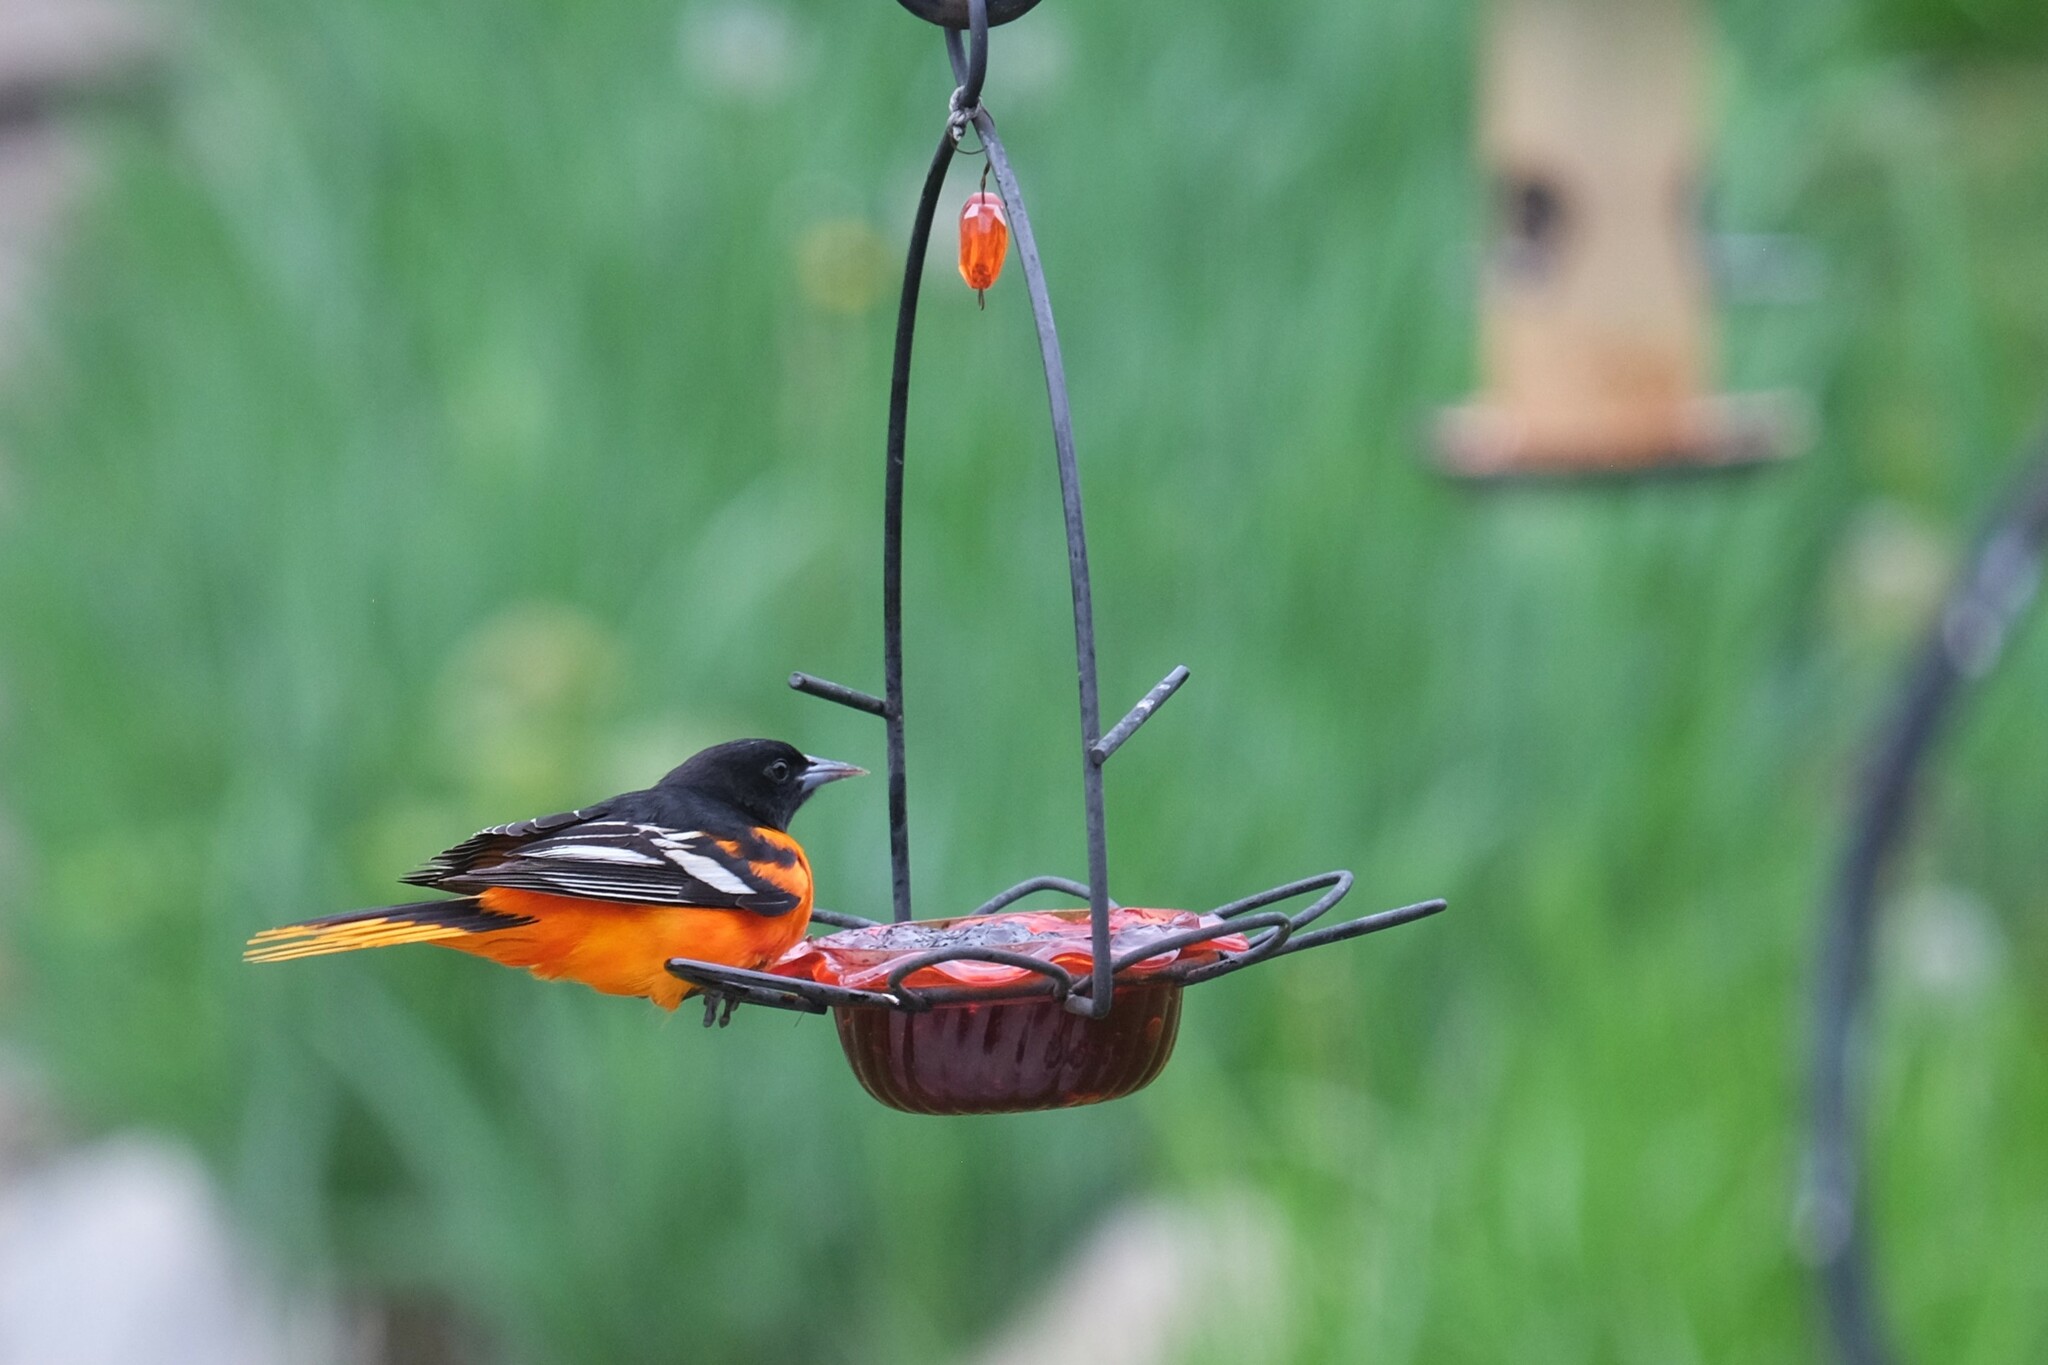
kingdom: Animalia
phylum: Chordata
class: Aves
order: Passeriformes
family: Icteridae
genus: Icterus
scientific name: Icterus galbula
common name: Baltimore oriole
